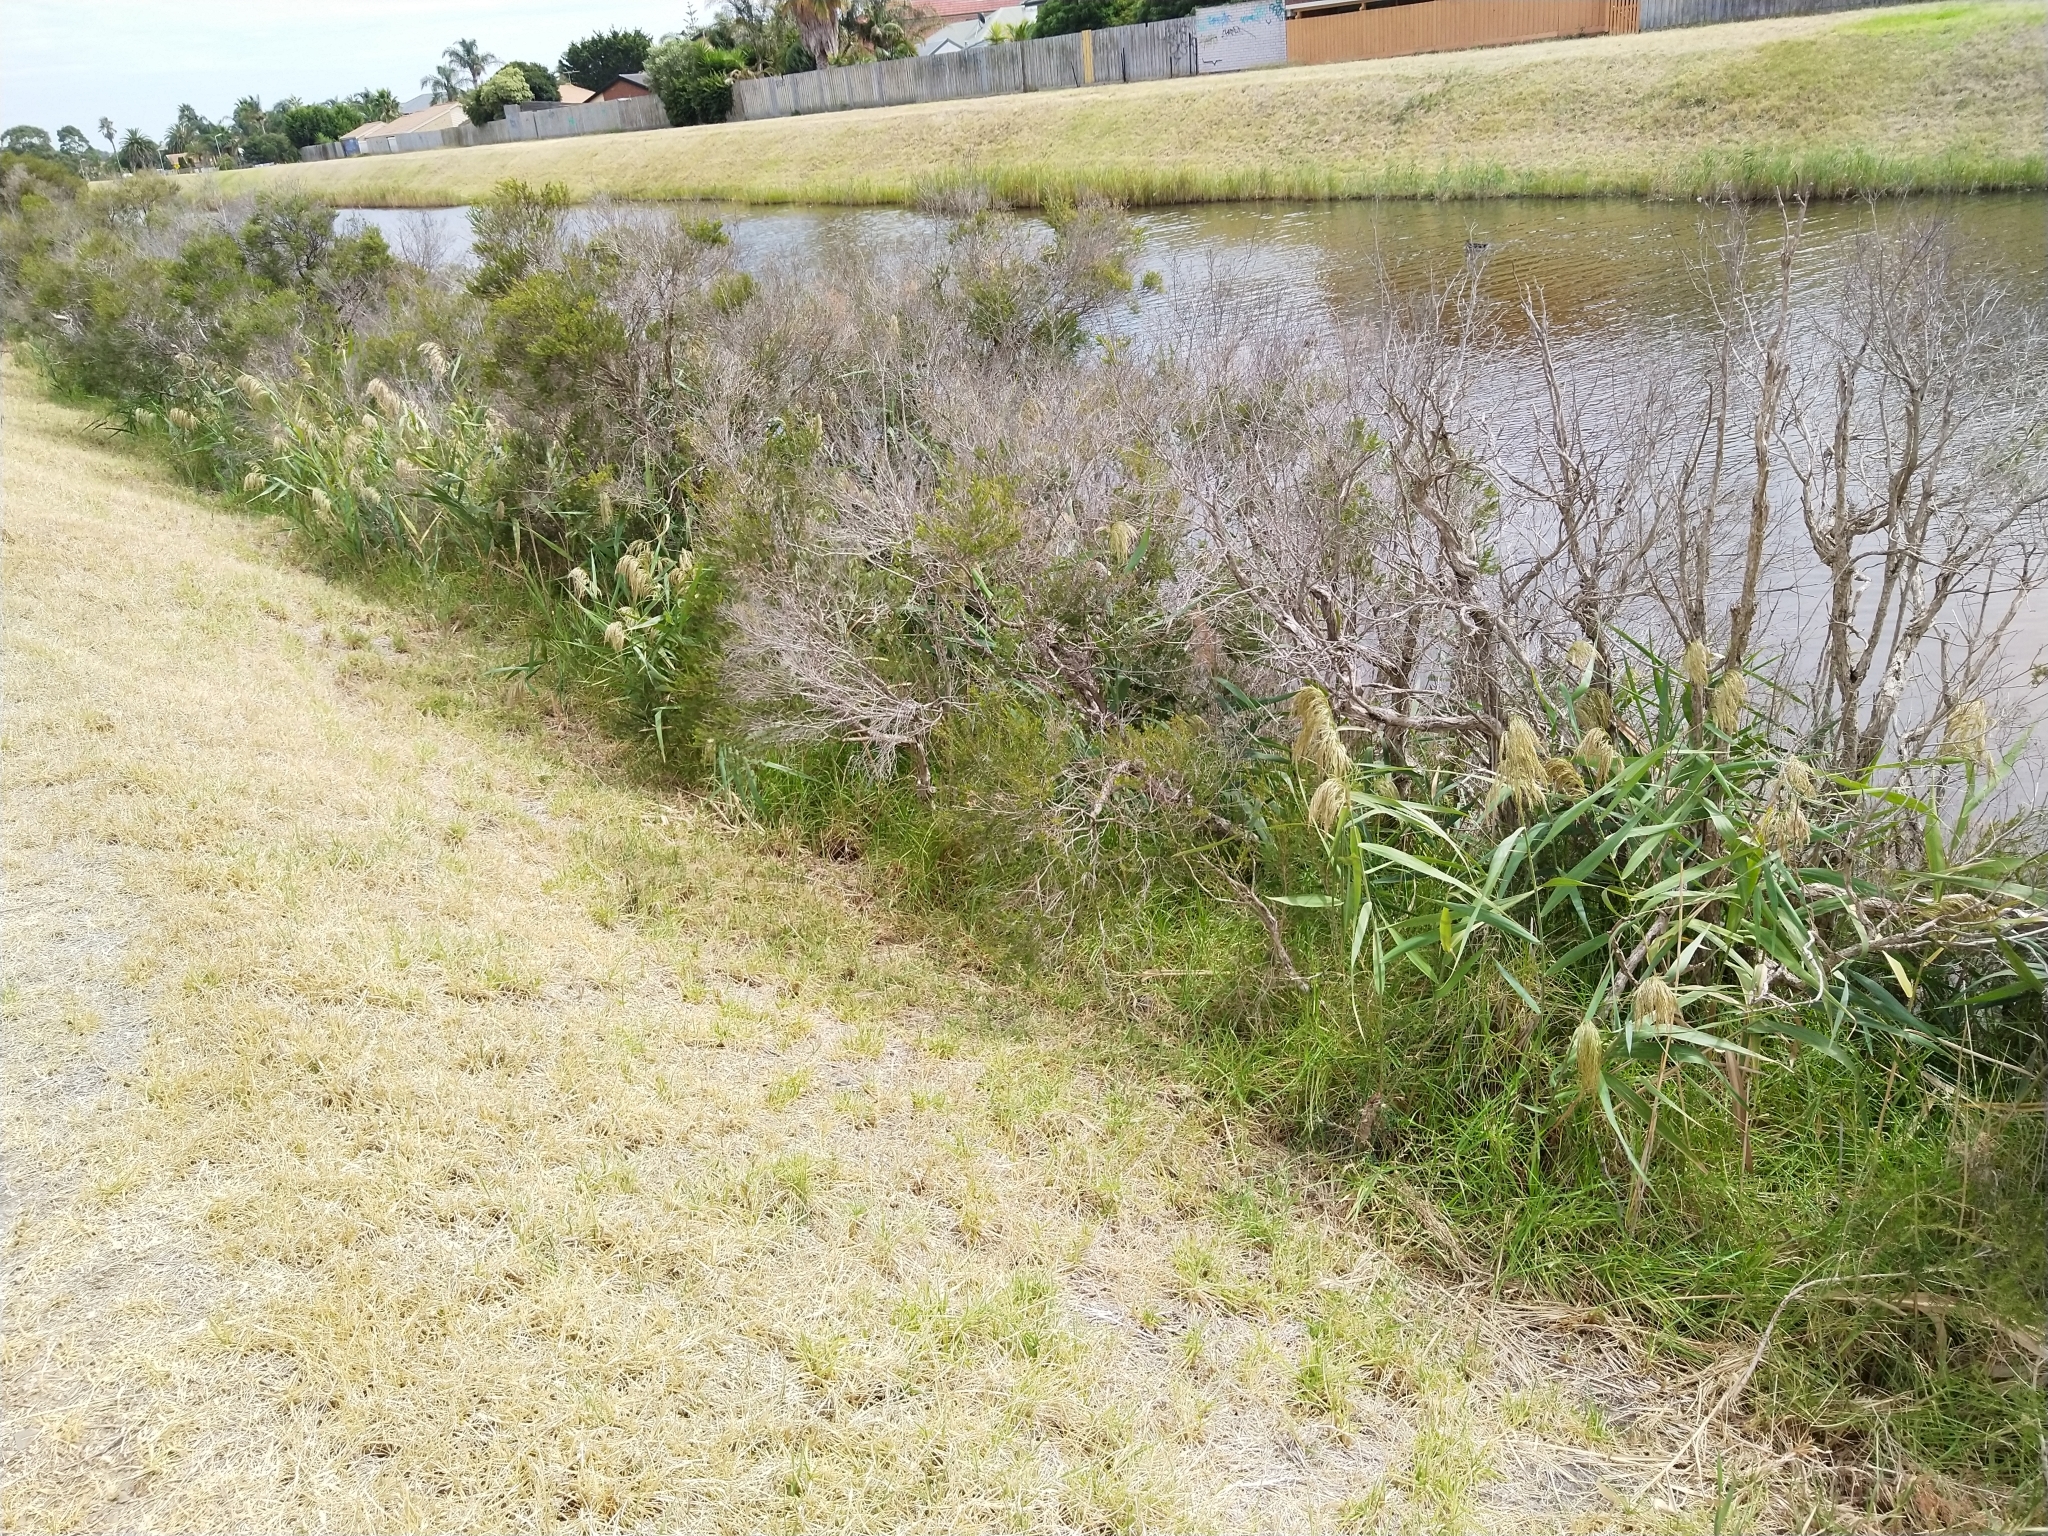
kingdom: Plantae
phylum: Tracheophyta
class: Liliopsida
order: Poales
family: Poaceae
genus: Phragmites
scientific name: Phragmites australis
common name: Common reed
